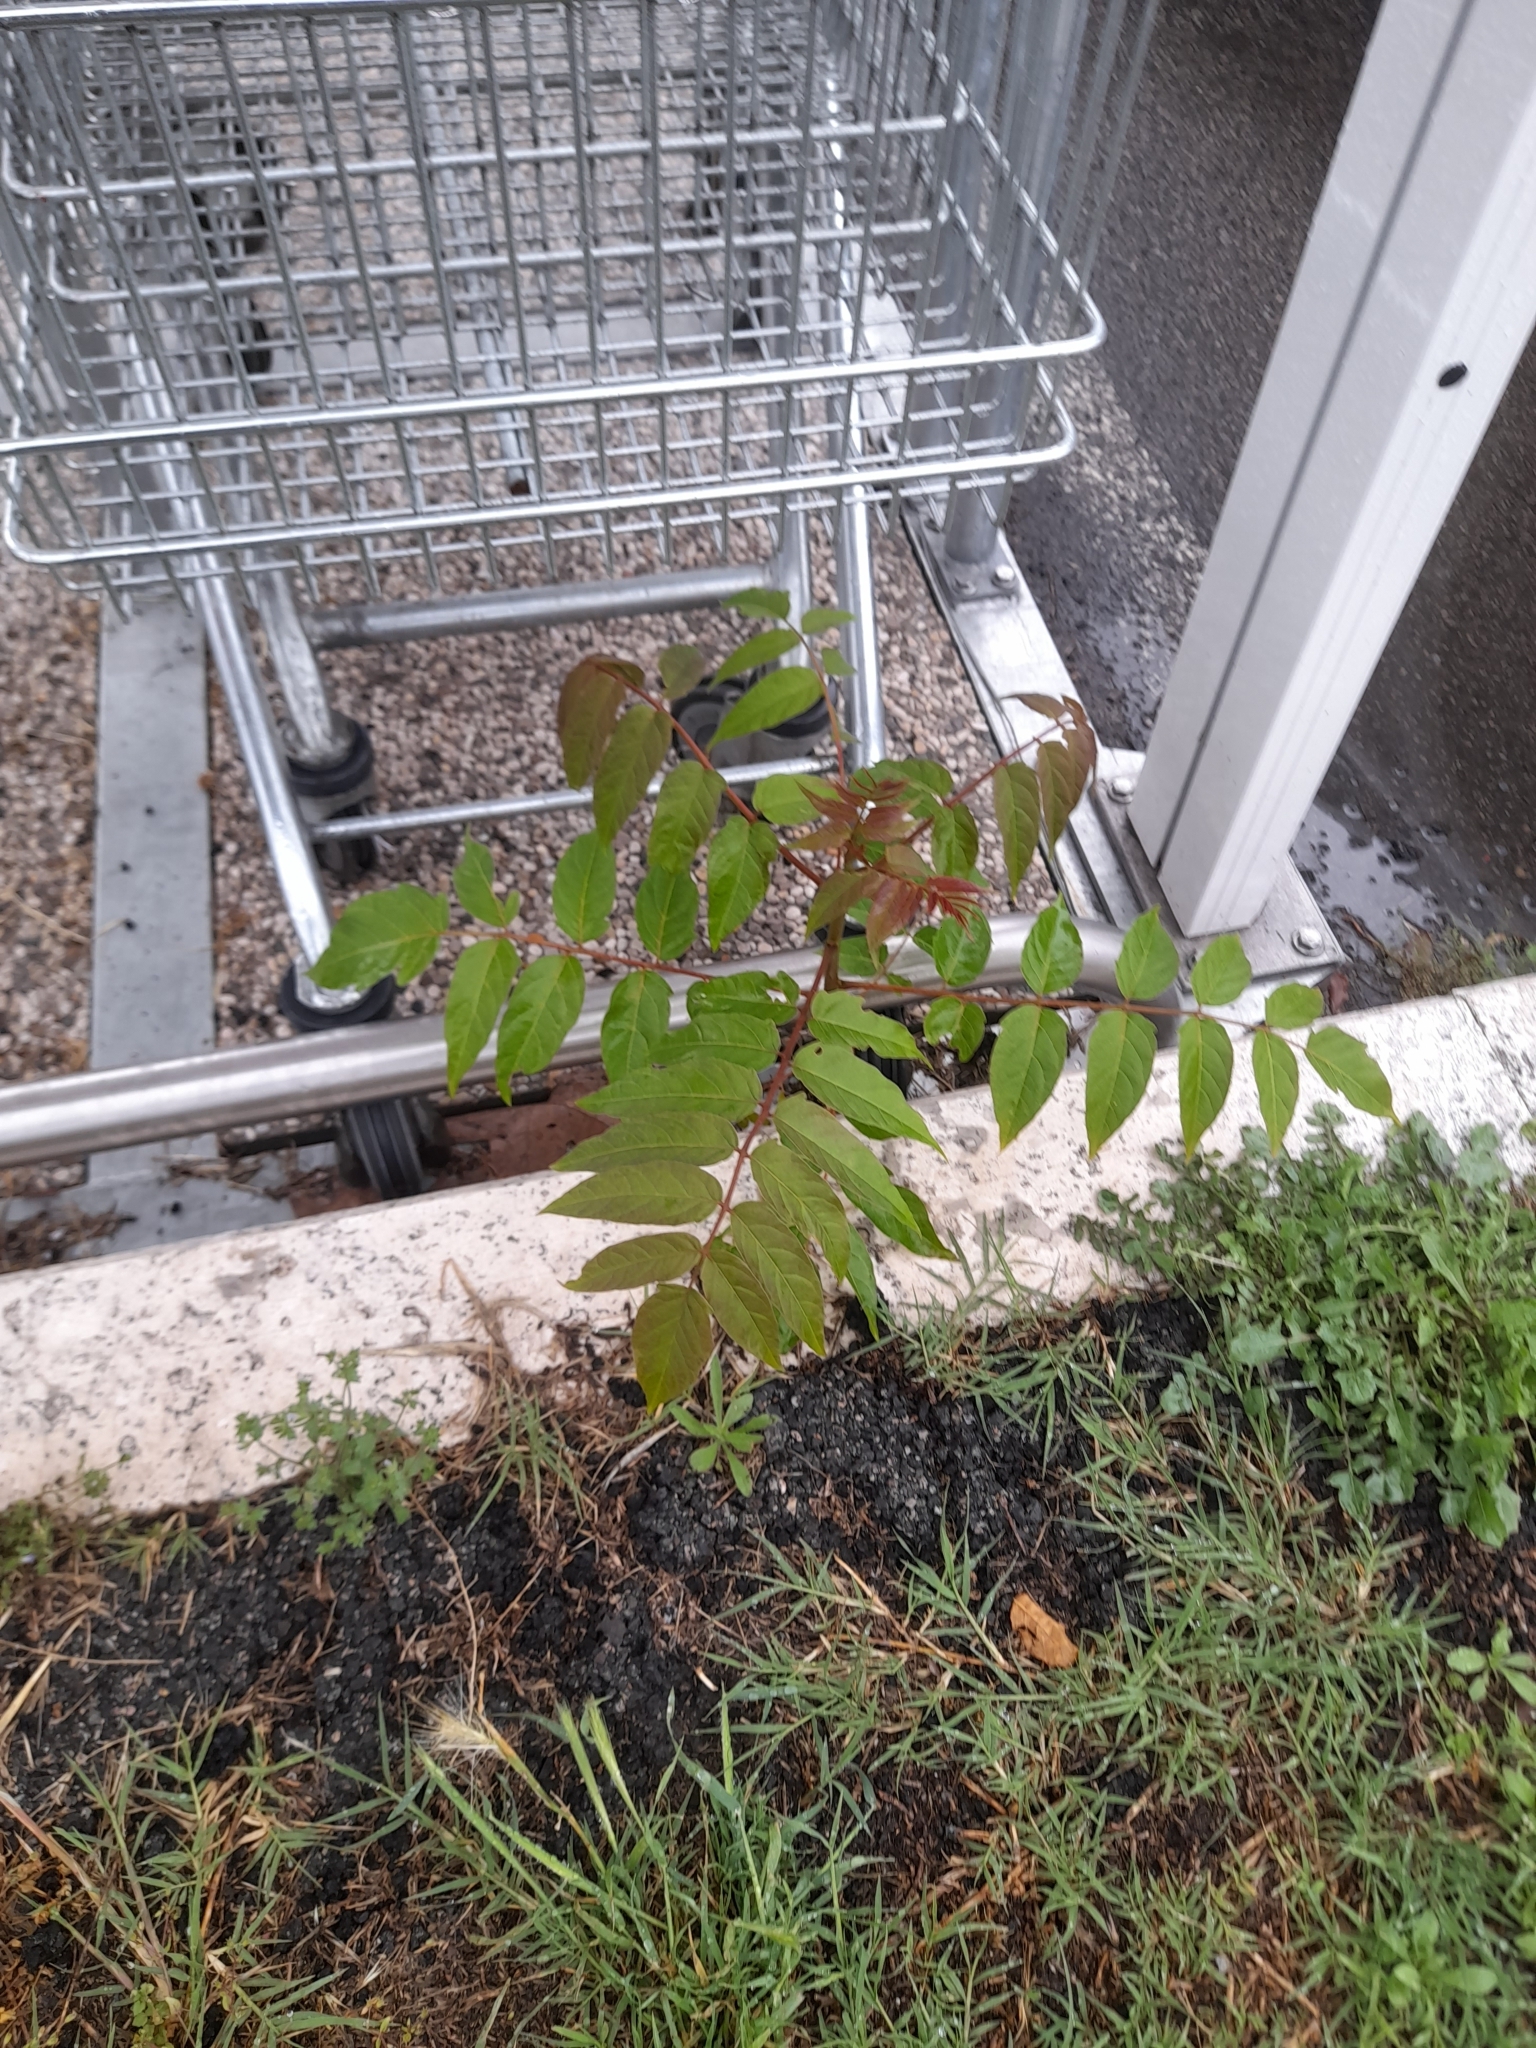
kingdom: Plantae
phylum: Tracheophyta
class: Magnoliopsida
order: Sapindales
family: Simaroubaceae
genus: Ailanthus
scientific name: Ailanthus altissima
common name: Tree-of-heaven
